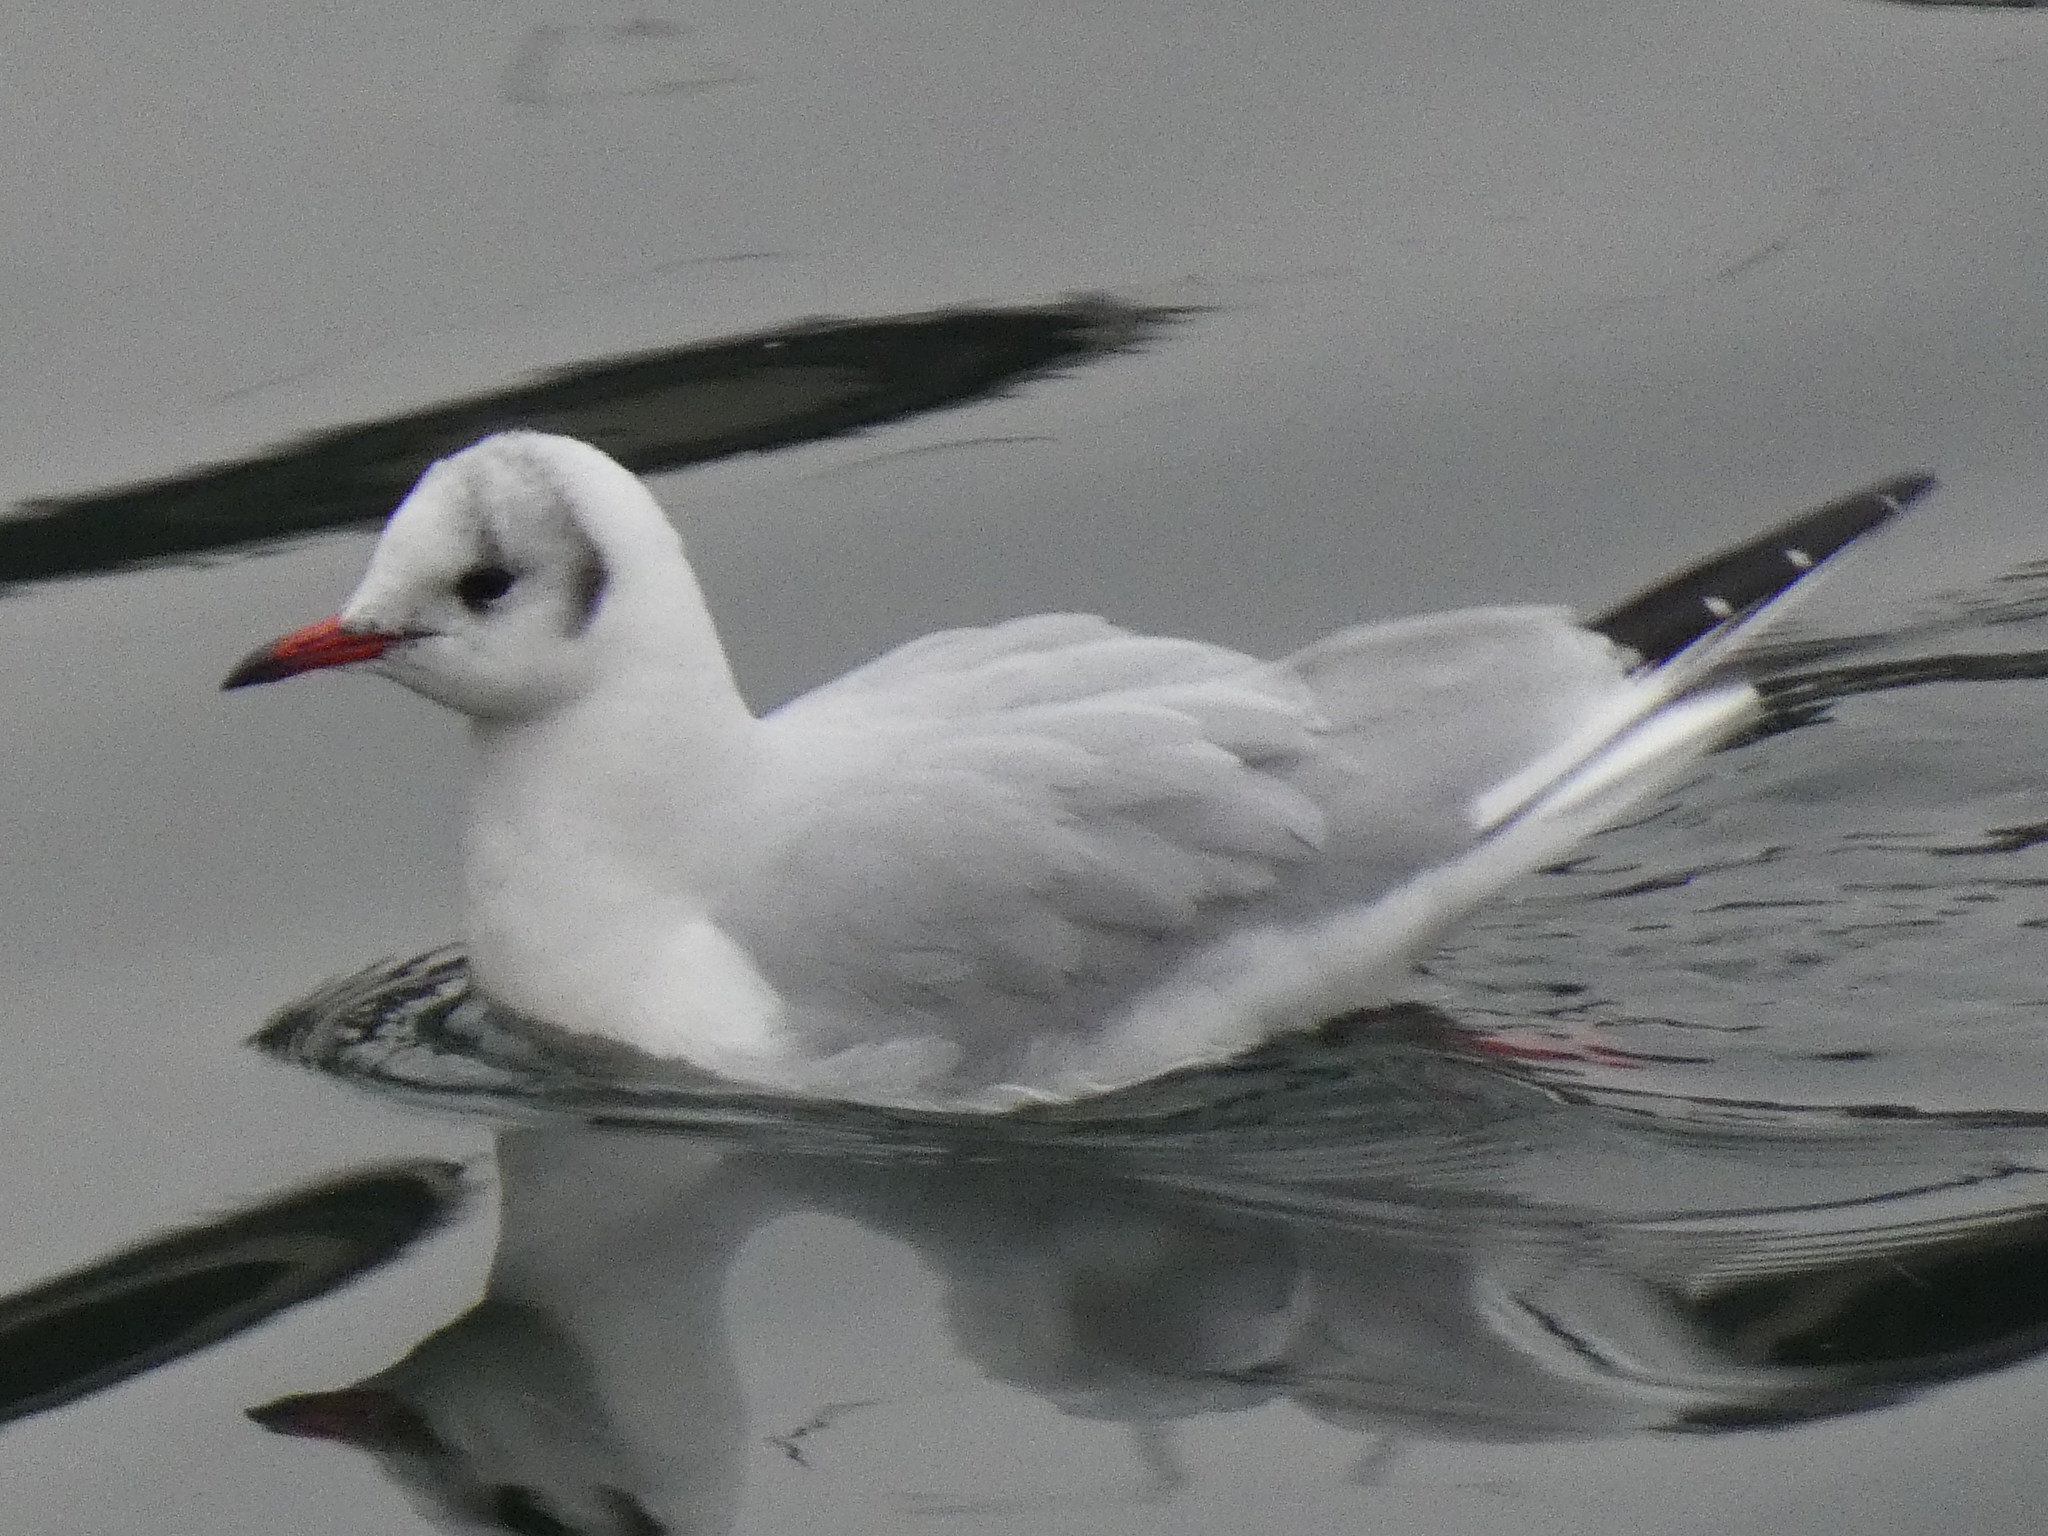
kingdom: Animalia
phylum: Chordata
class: Aves
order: Charadriiformes
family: Laridae
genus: Chroicocephalus
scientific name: Chroicocephalus ridibundus
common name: Black-headed gull
